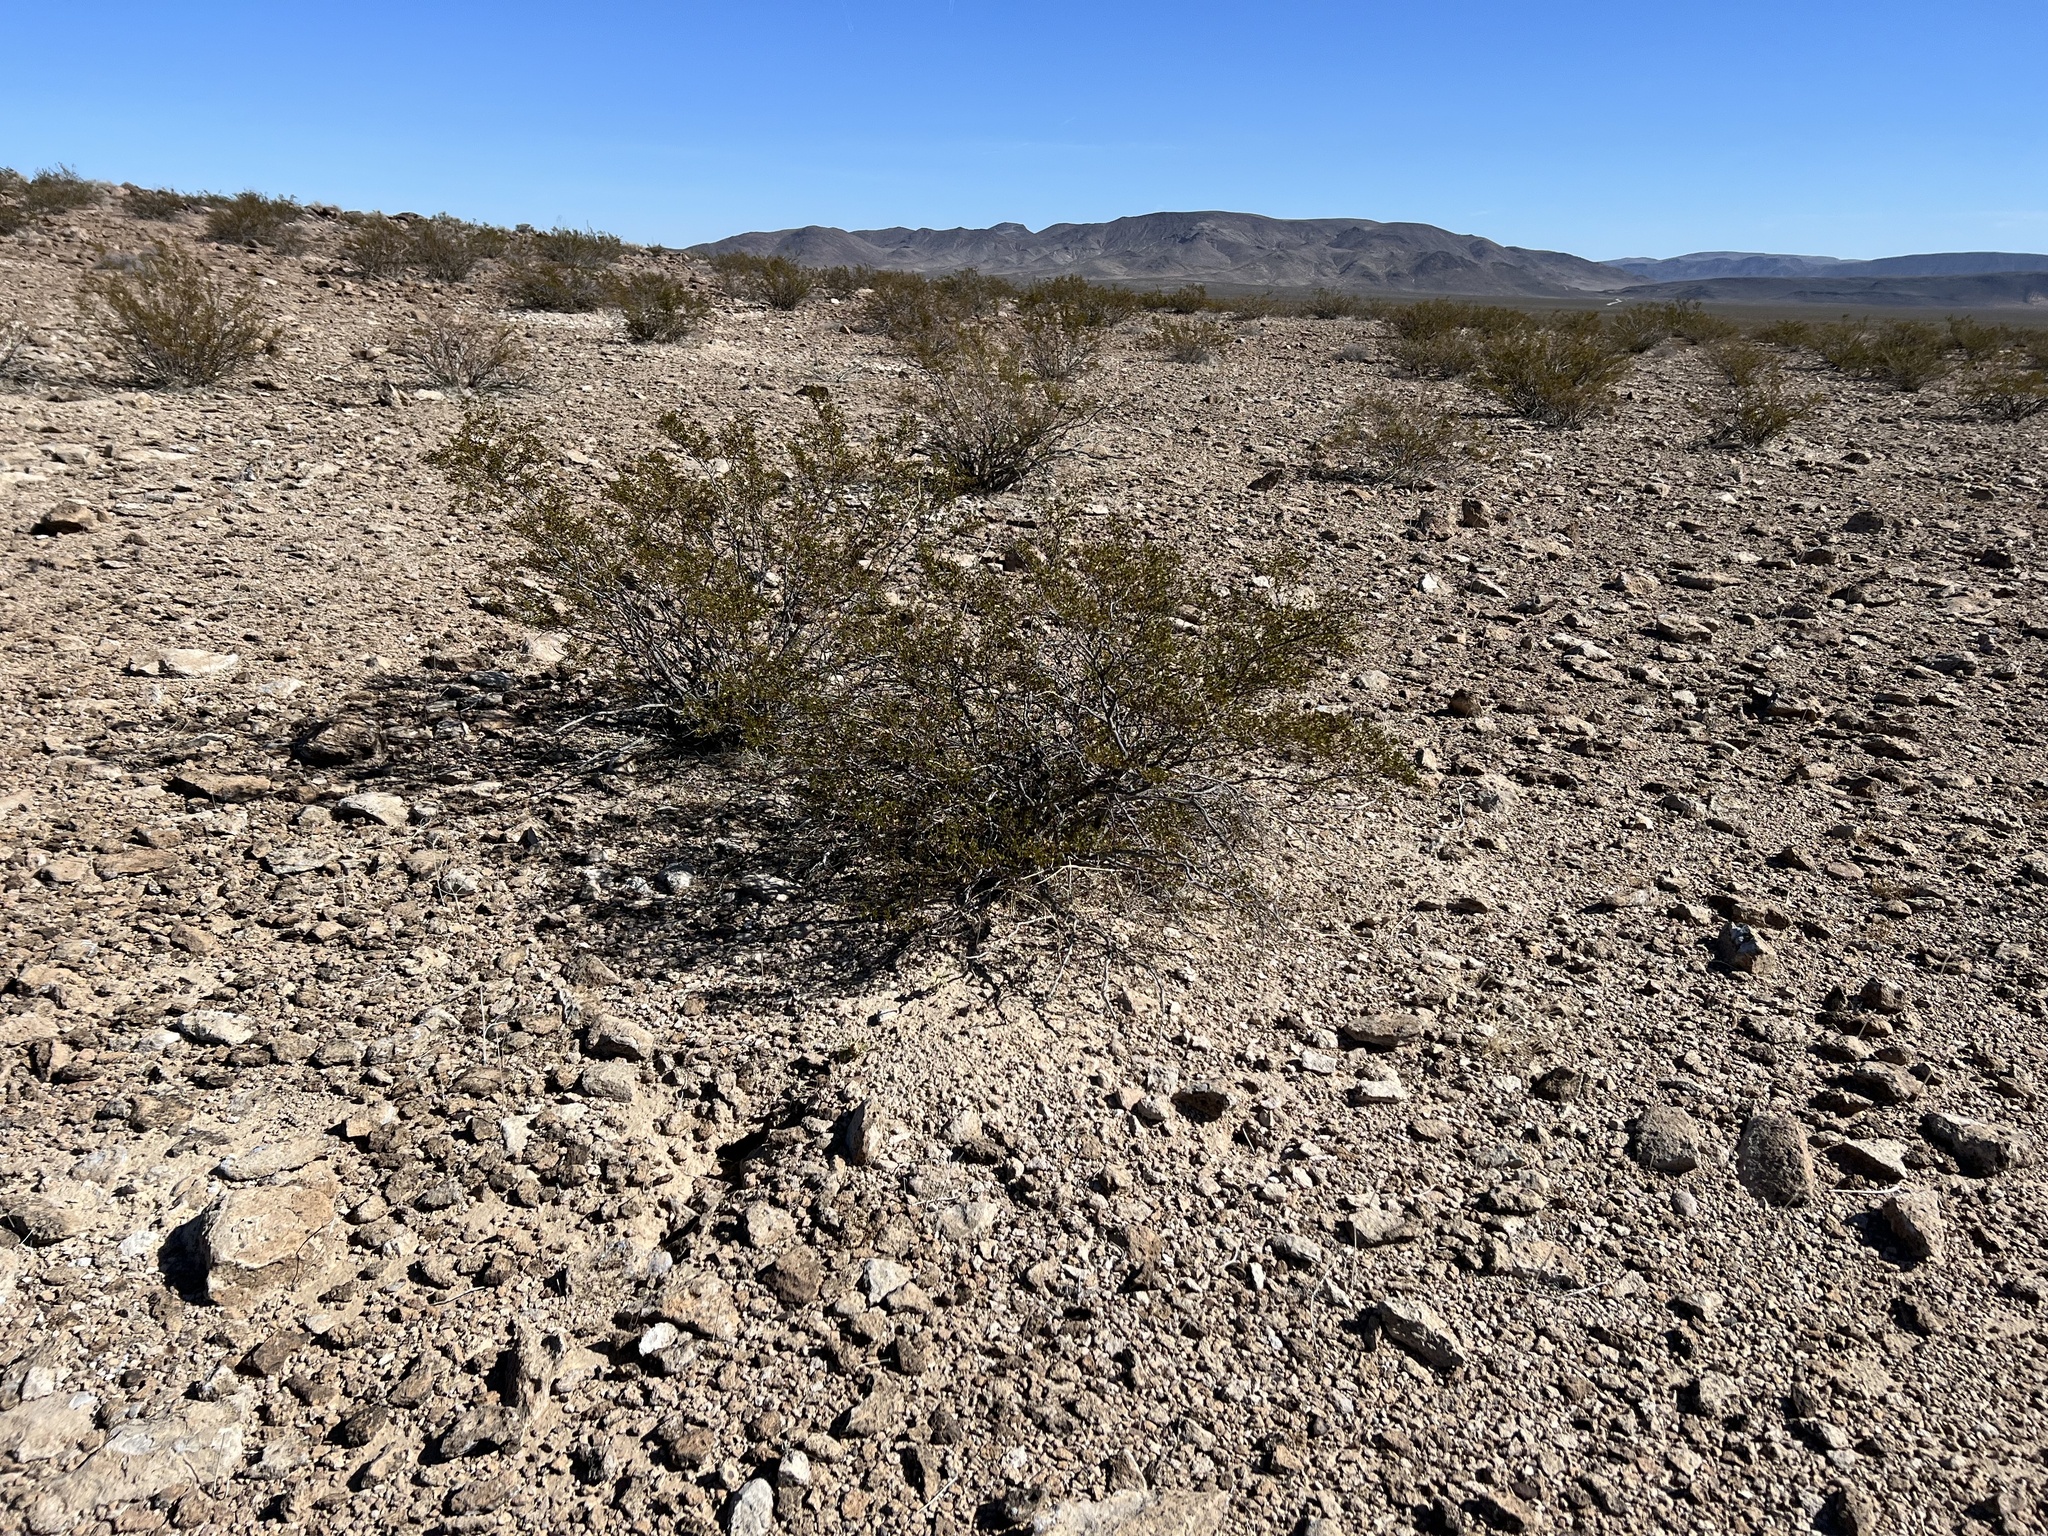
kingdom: Plantae
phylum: Tracheophyta
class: Magnoliopsida
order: Zygophyllales
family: Zygophyllaceae
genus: Larrea
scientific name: Larrea tridentata
